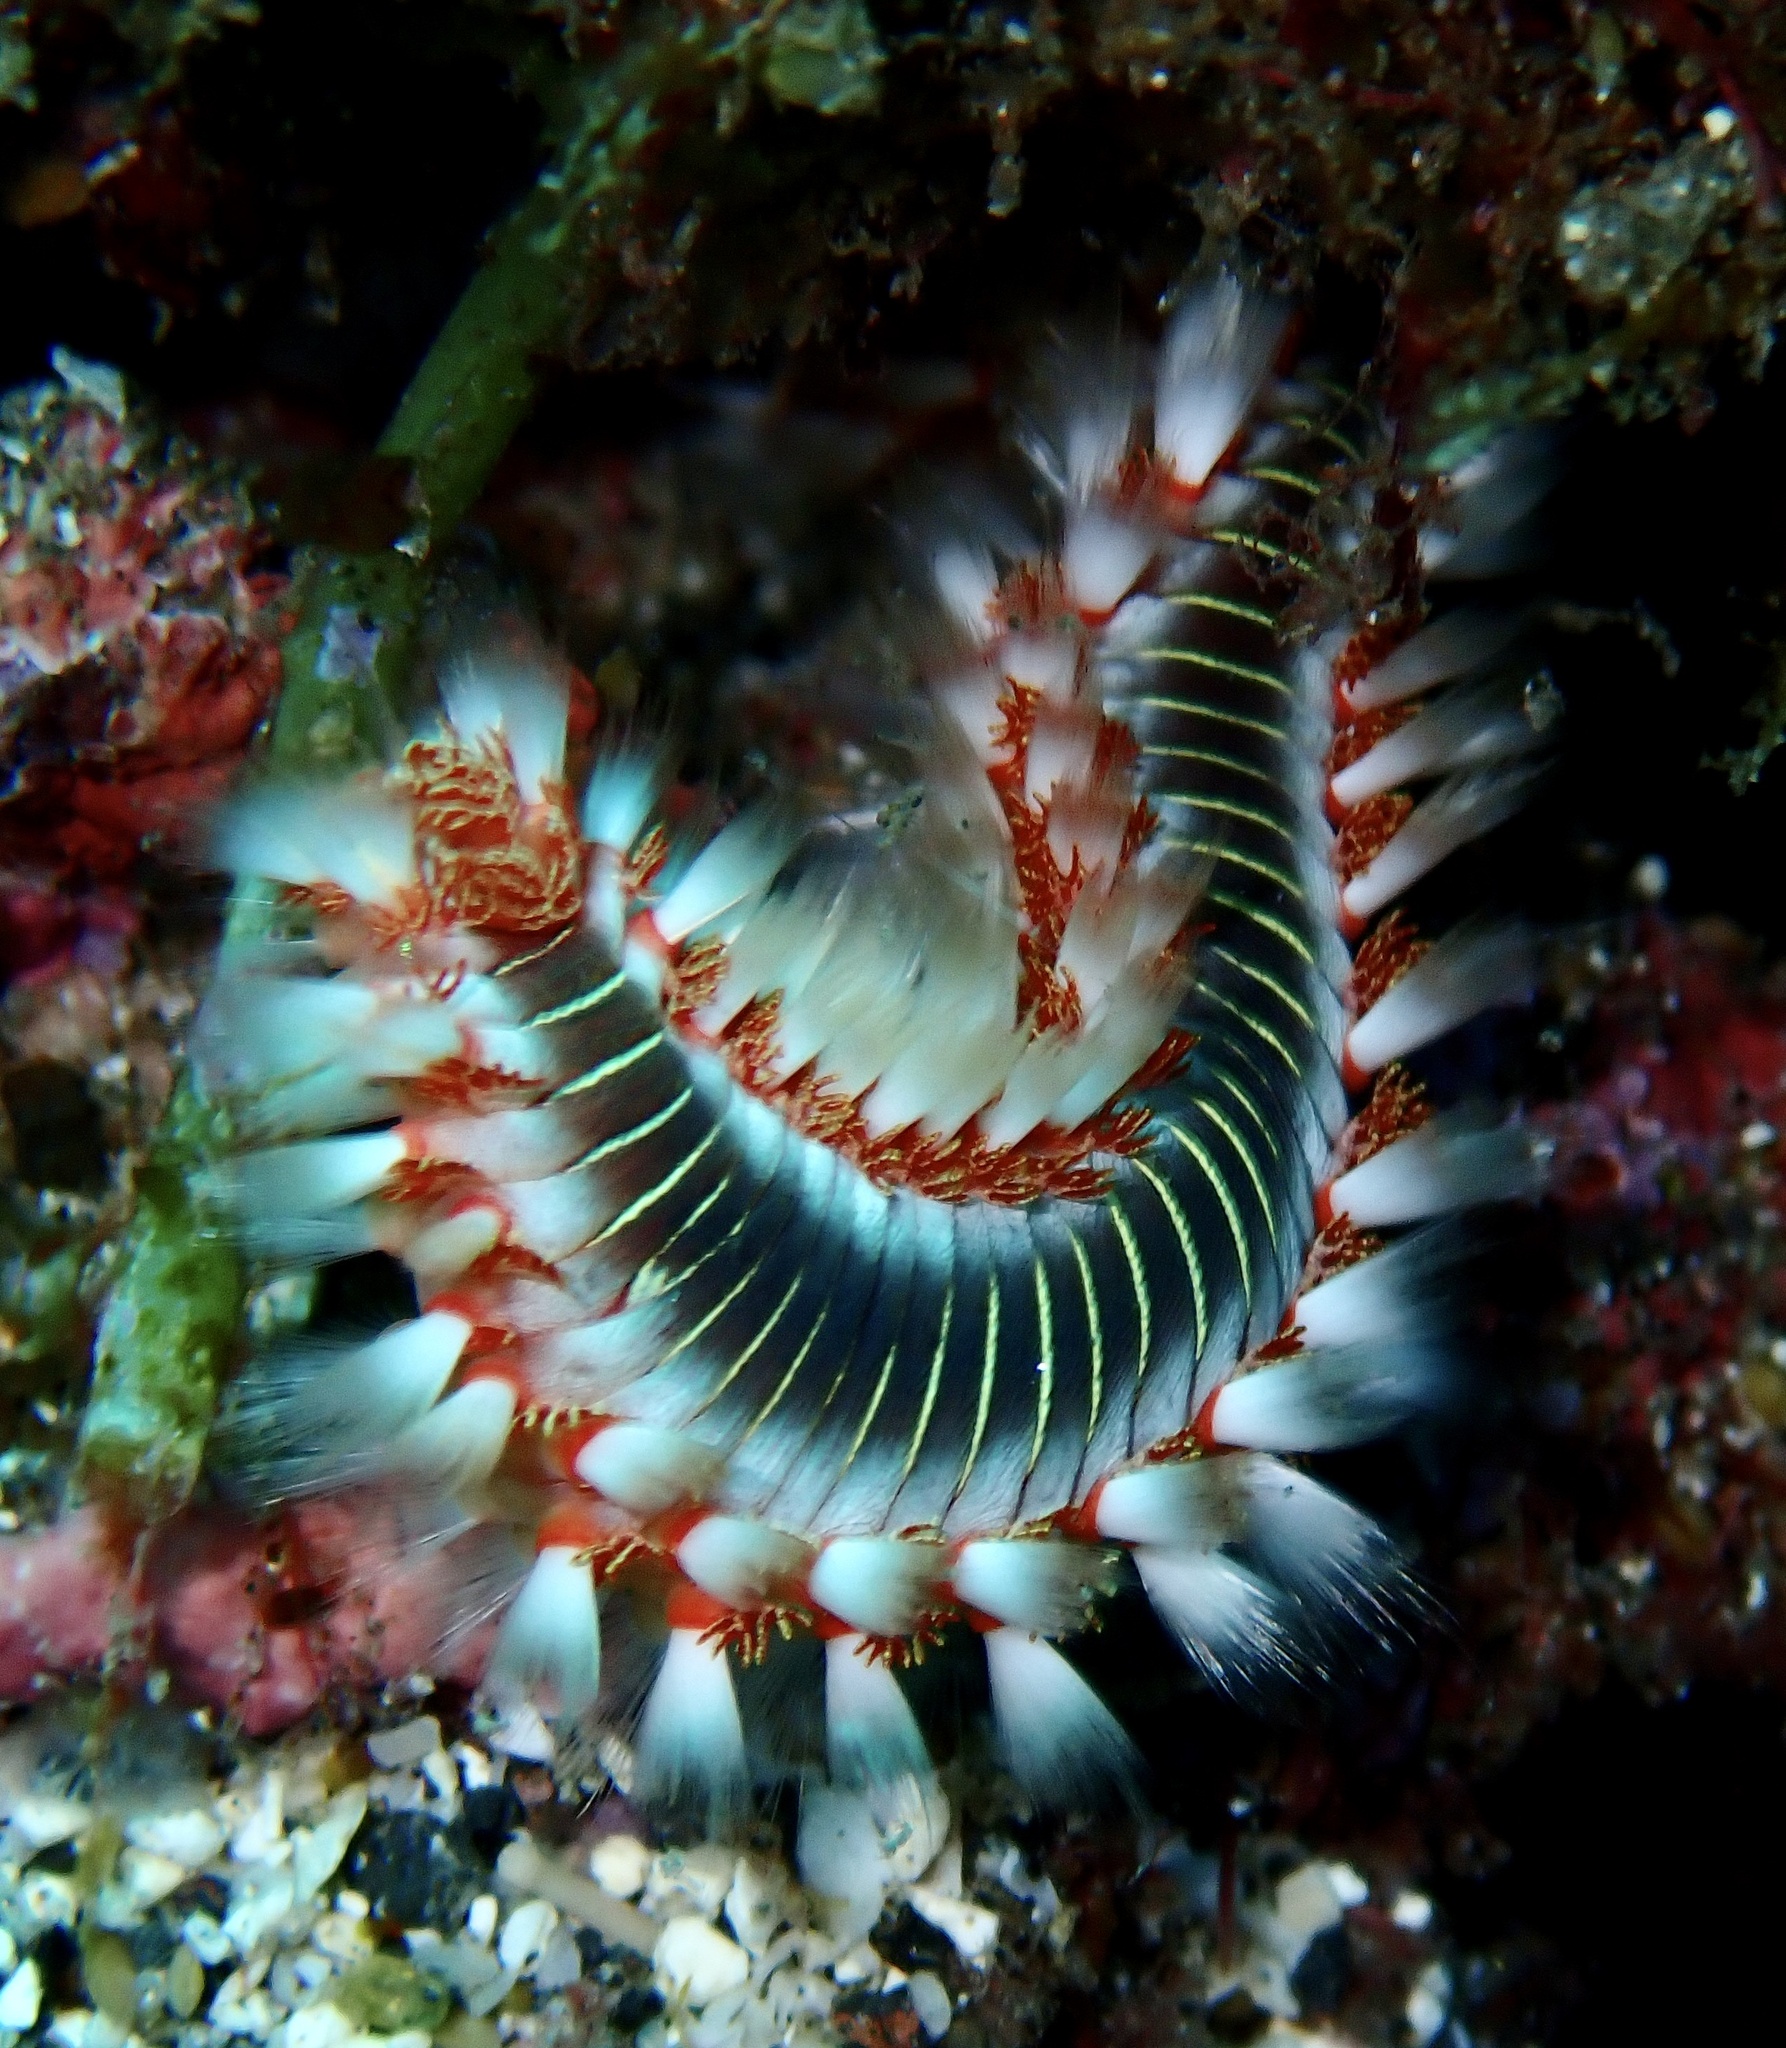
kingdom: Animalia
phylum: Annelida
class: Polychaeta
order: Amphinomida
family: Amphinomidae
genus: Hermodice
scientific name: Hermodice carunculata
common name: Bearded fireworm
